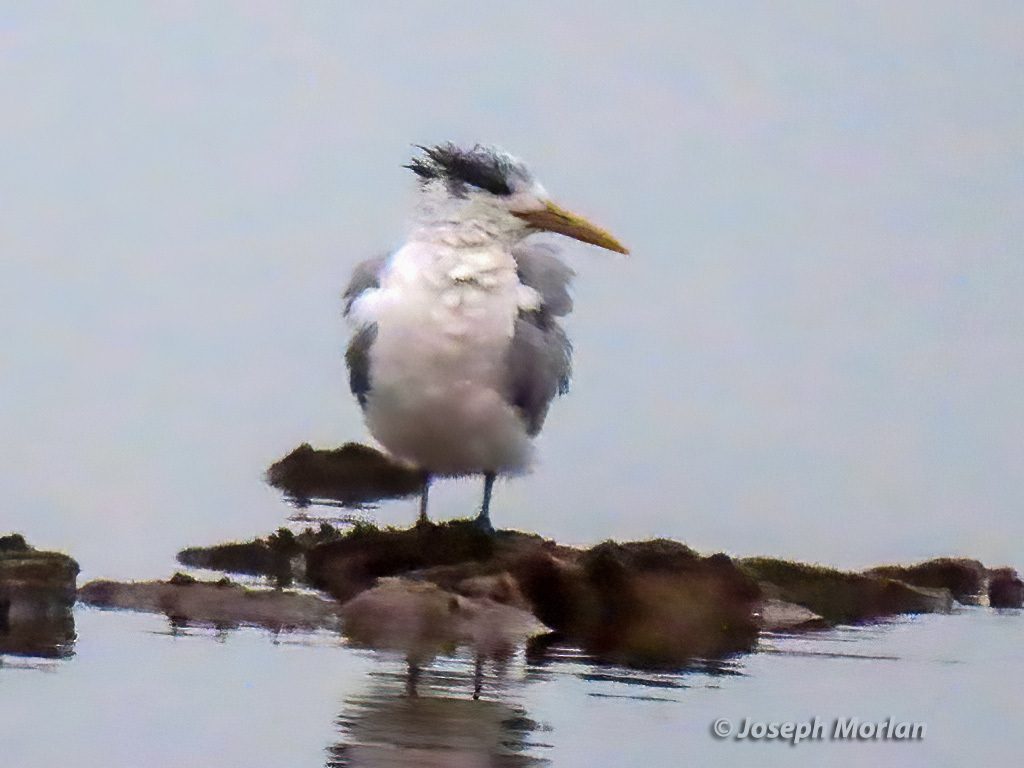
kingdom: Animalia
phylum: Chordata
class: Aves
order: Charadriiformes
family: Laridae
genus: Thalasseus
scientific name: Thalasseus bergii
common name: Greater crested tern
